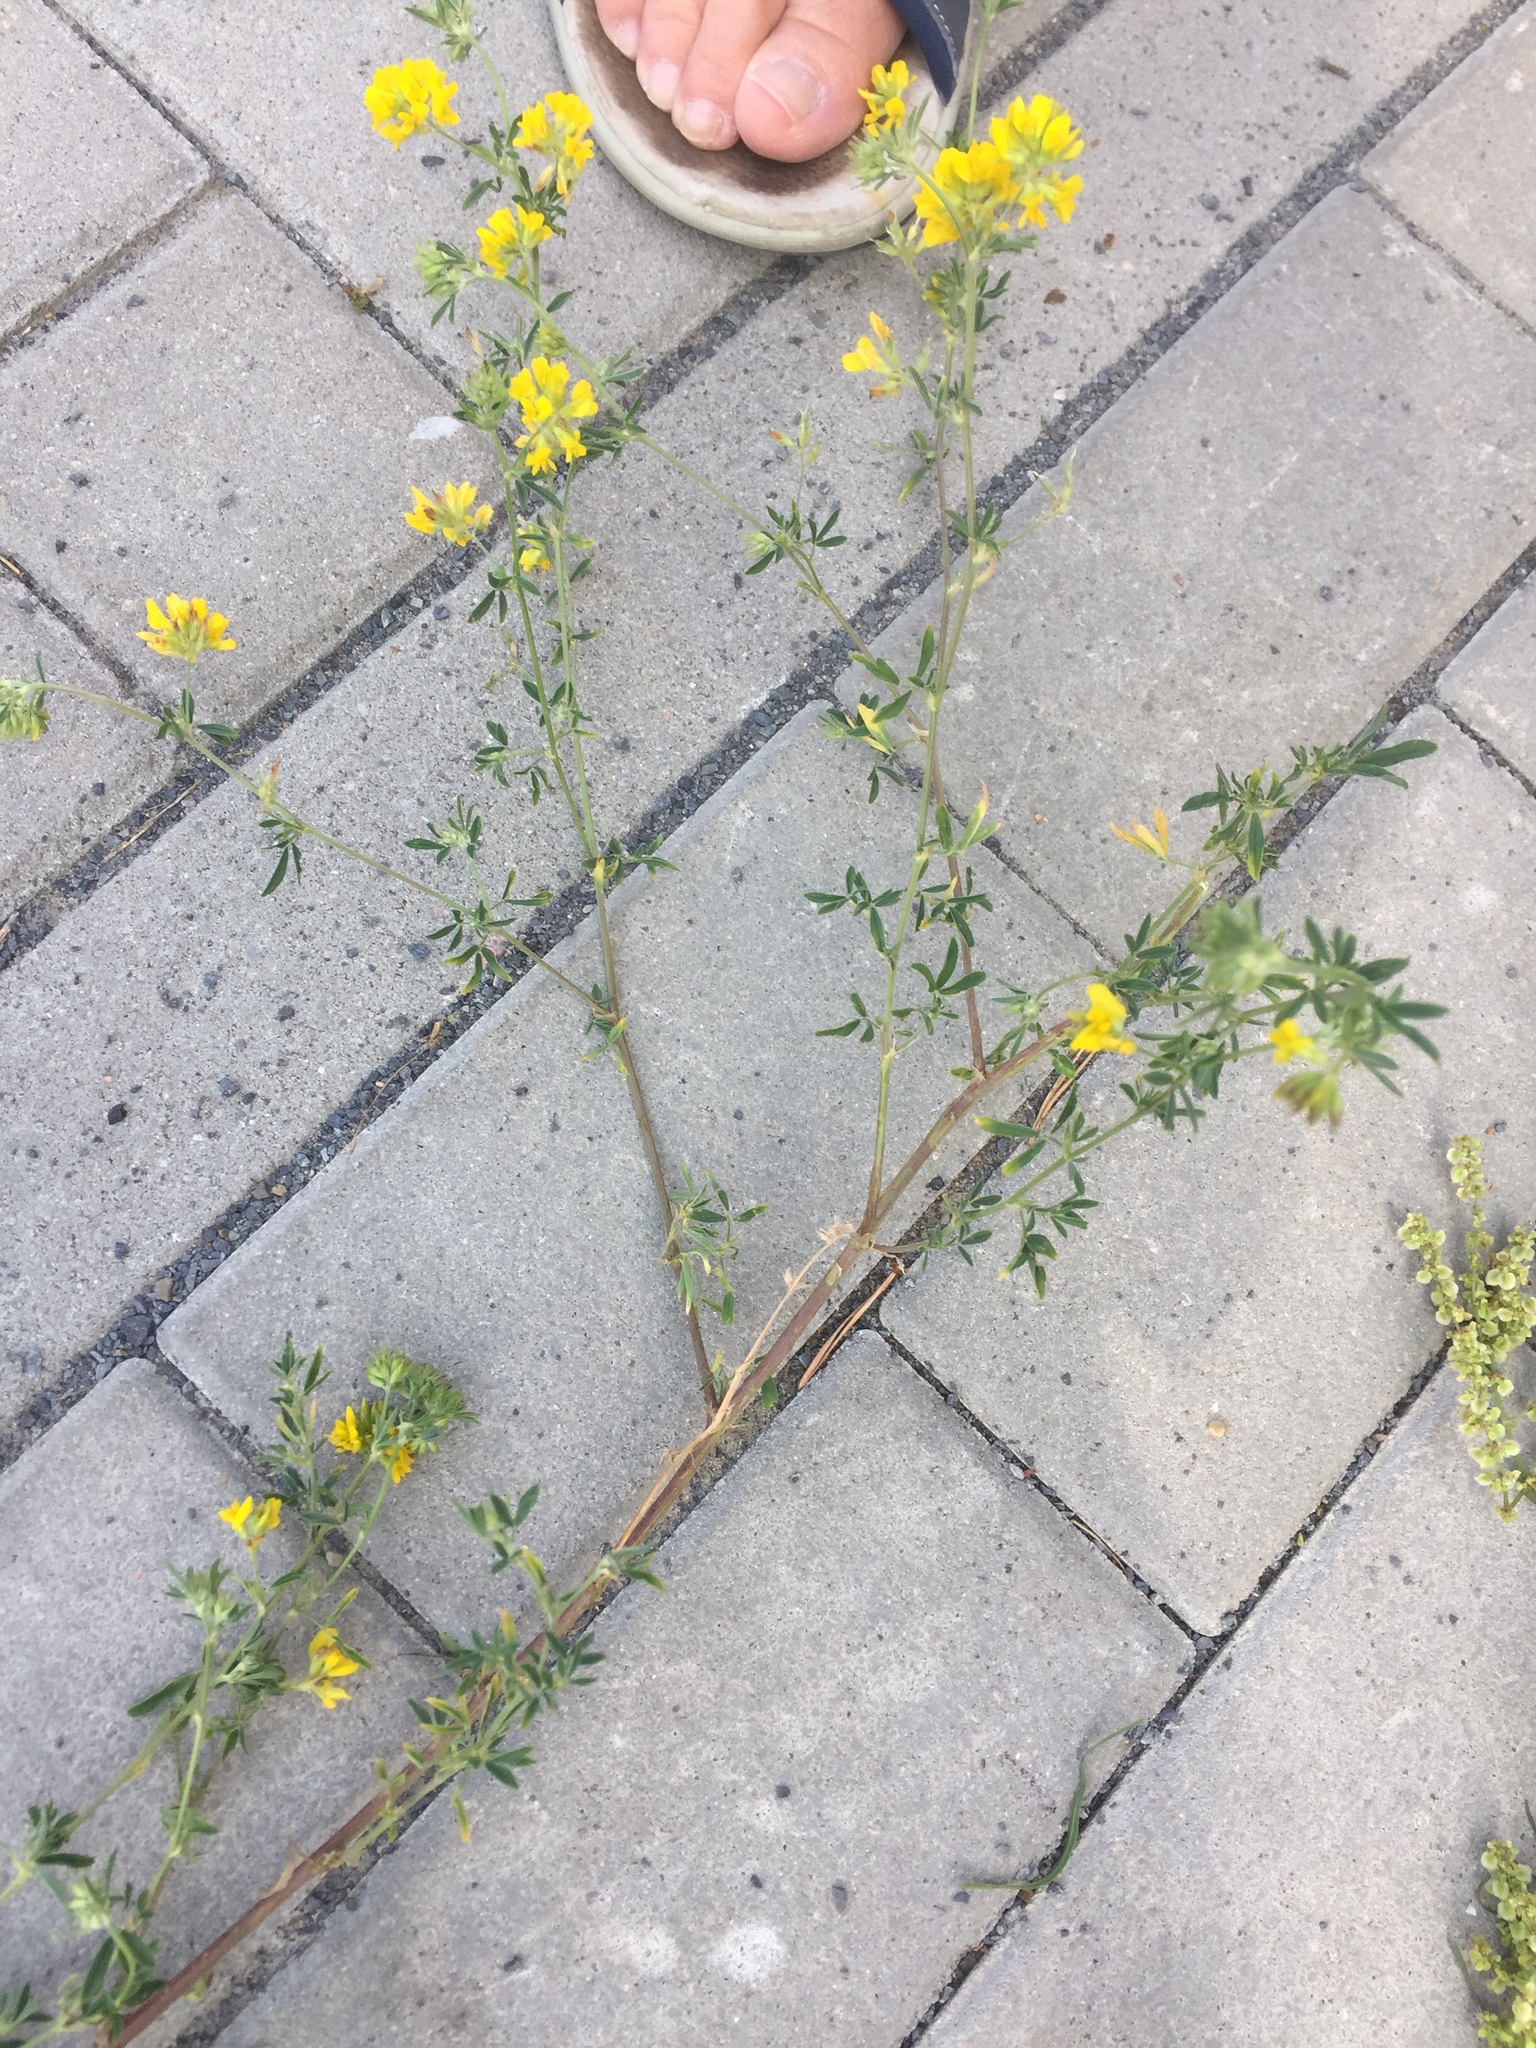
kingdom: Plantae
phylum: Tracheophyta
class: Magnoliopsida
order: Fabales
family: Fabaceae
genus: Medicago
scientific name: Medicago falcata
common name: Sickle medick
